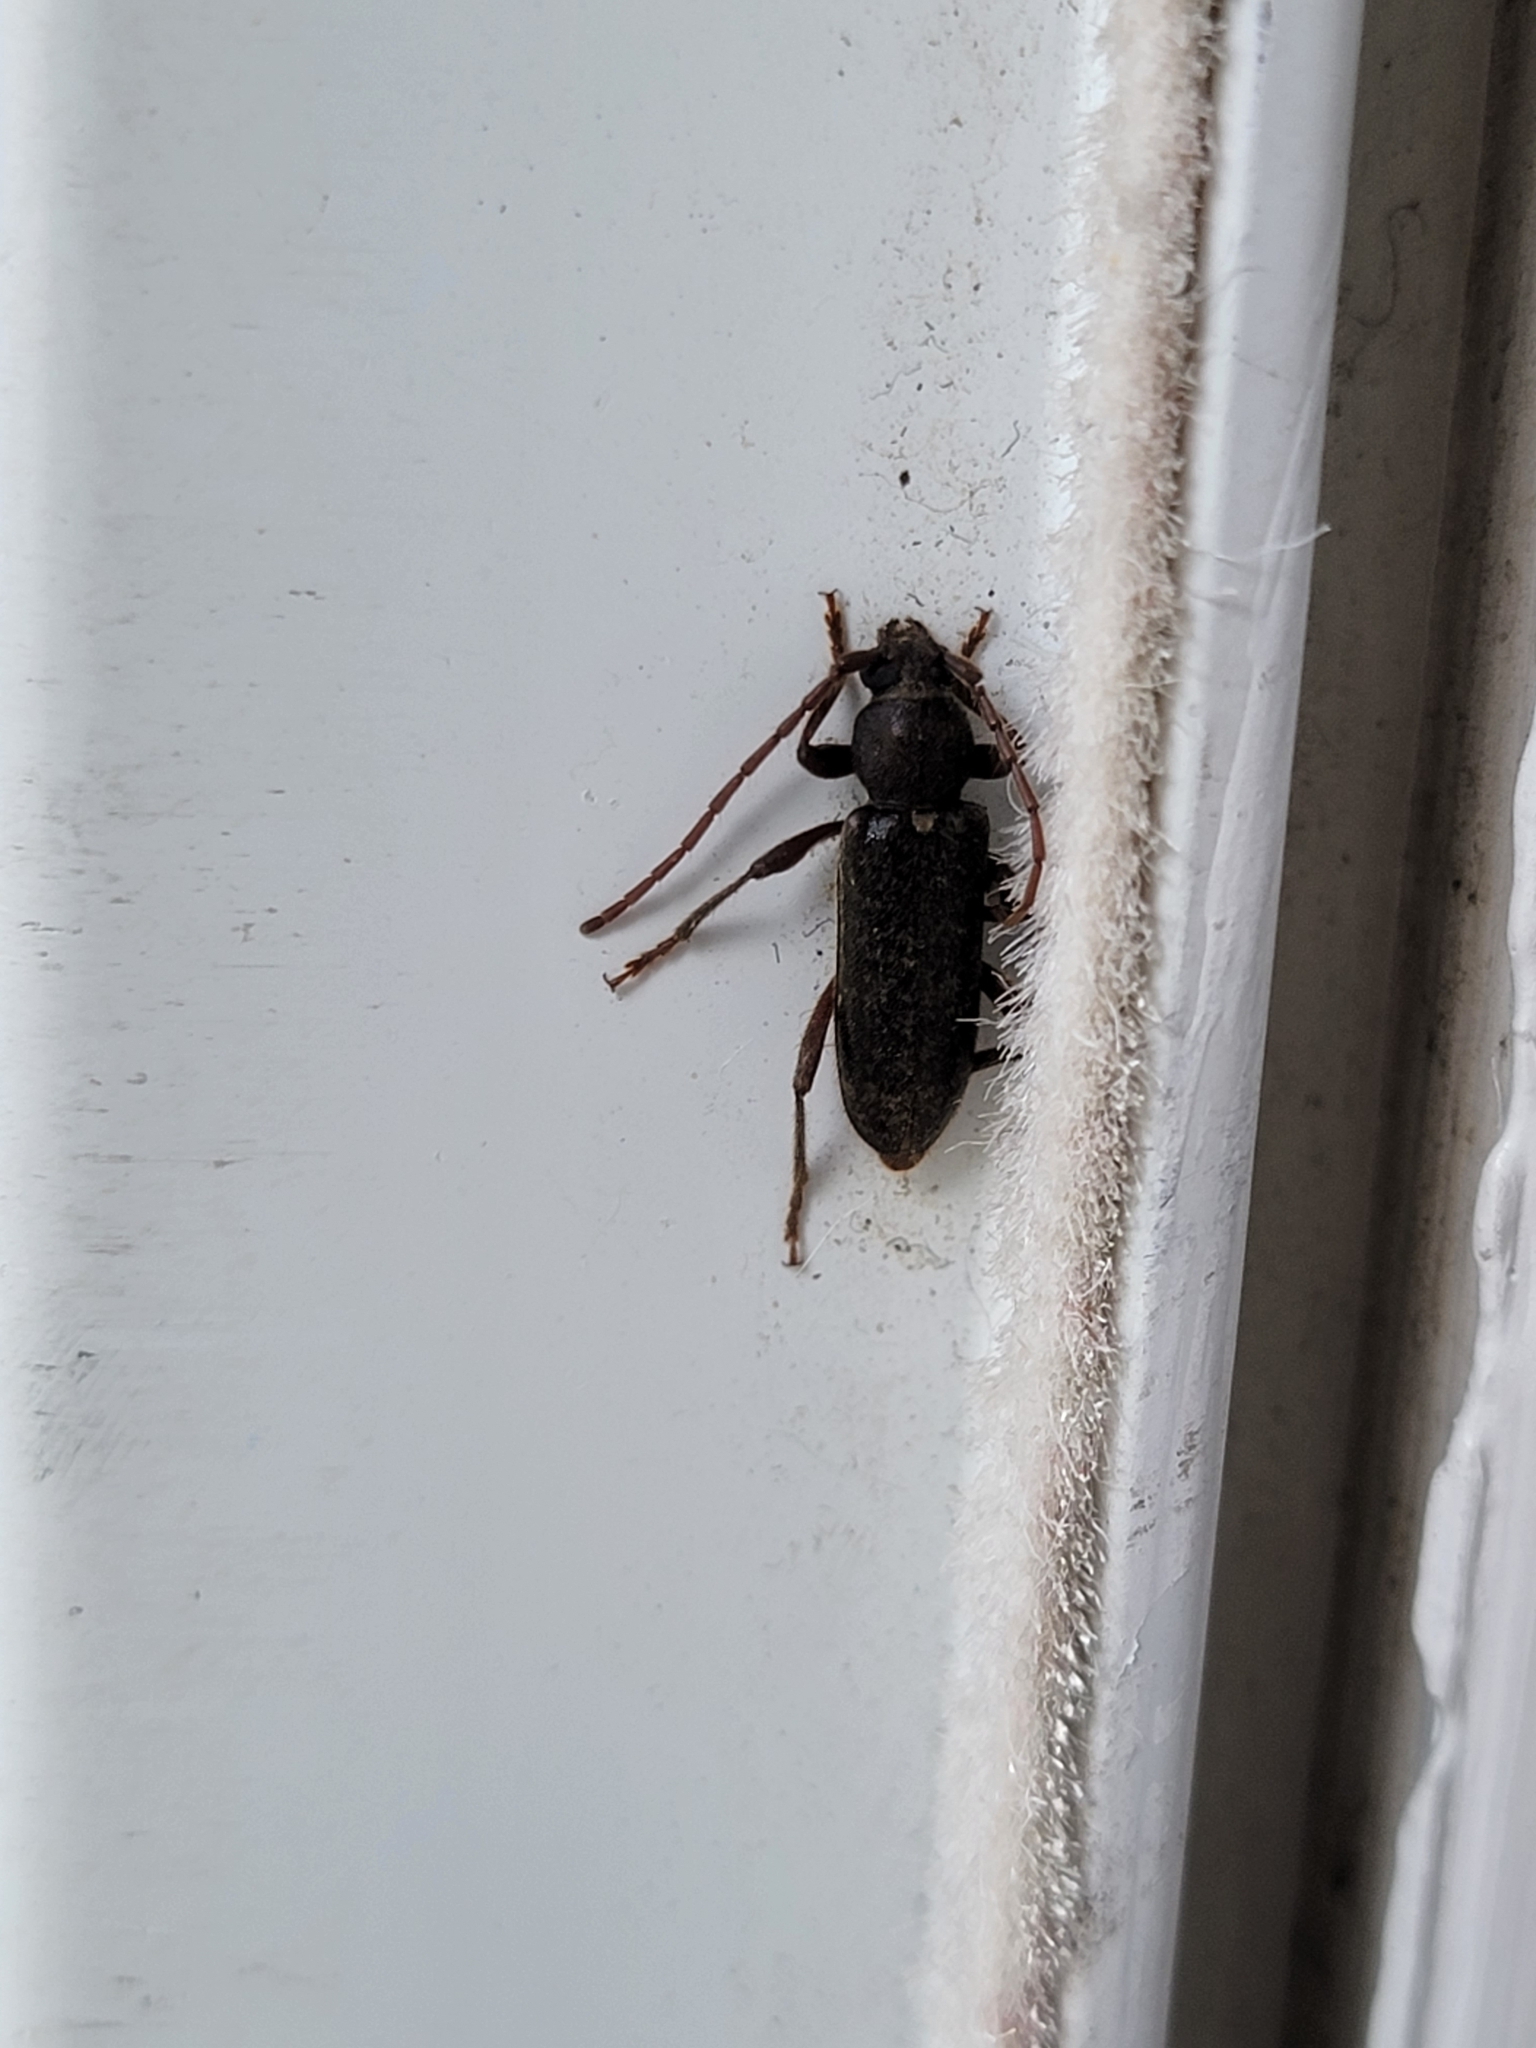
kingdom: Animalia
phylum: Arthropoda
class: Insecta
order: Coleoptera
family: Cerambycidae
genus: Trichoferus
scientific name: Trichoferus campestris
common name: Velvet long horned beetle
